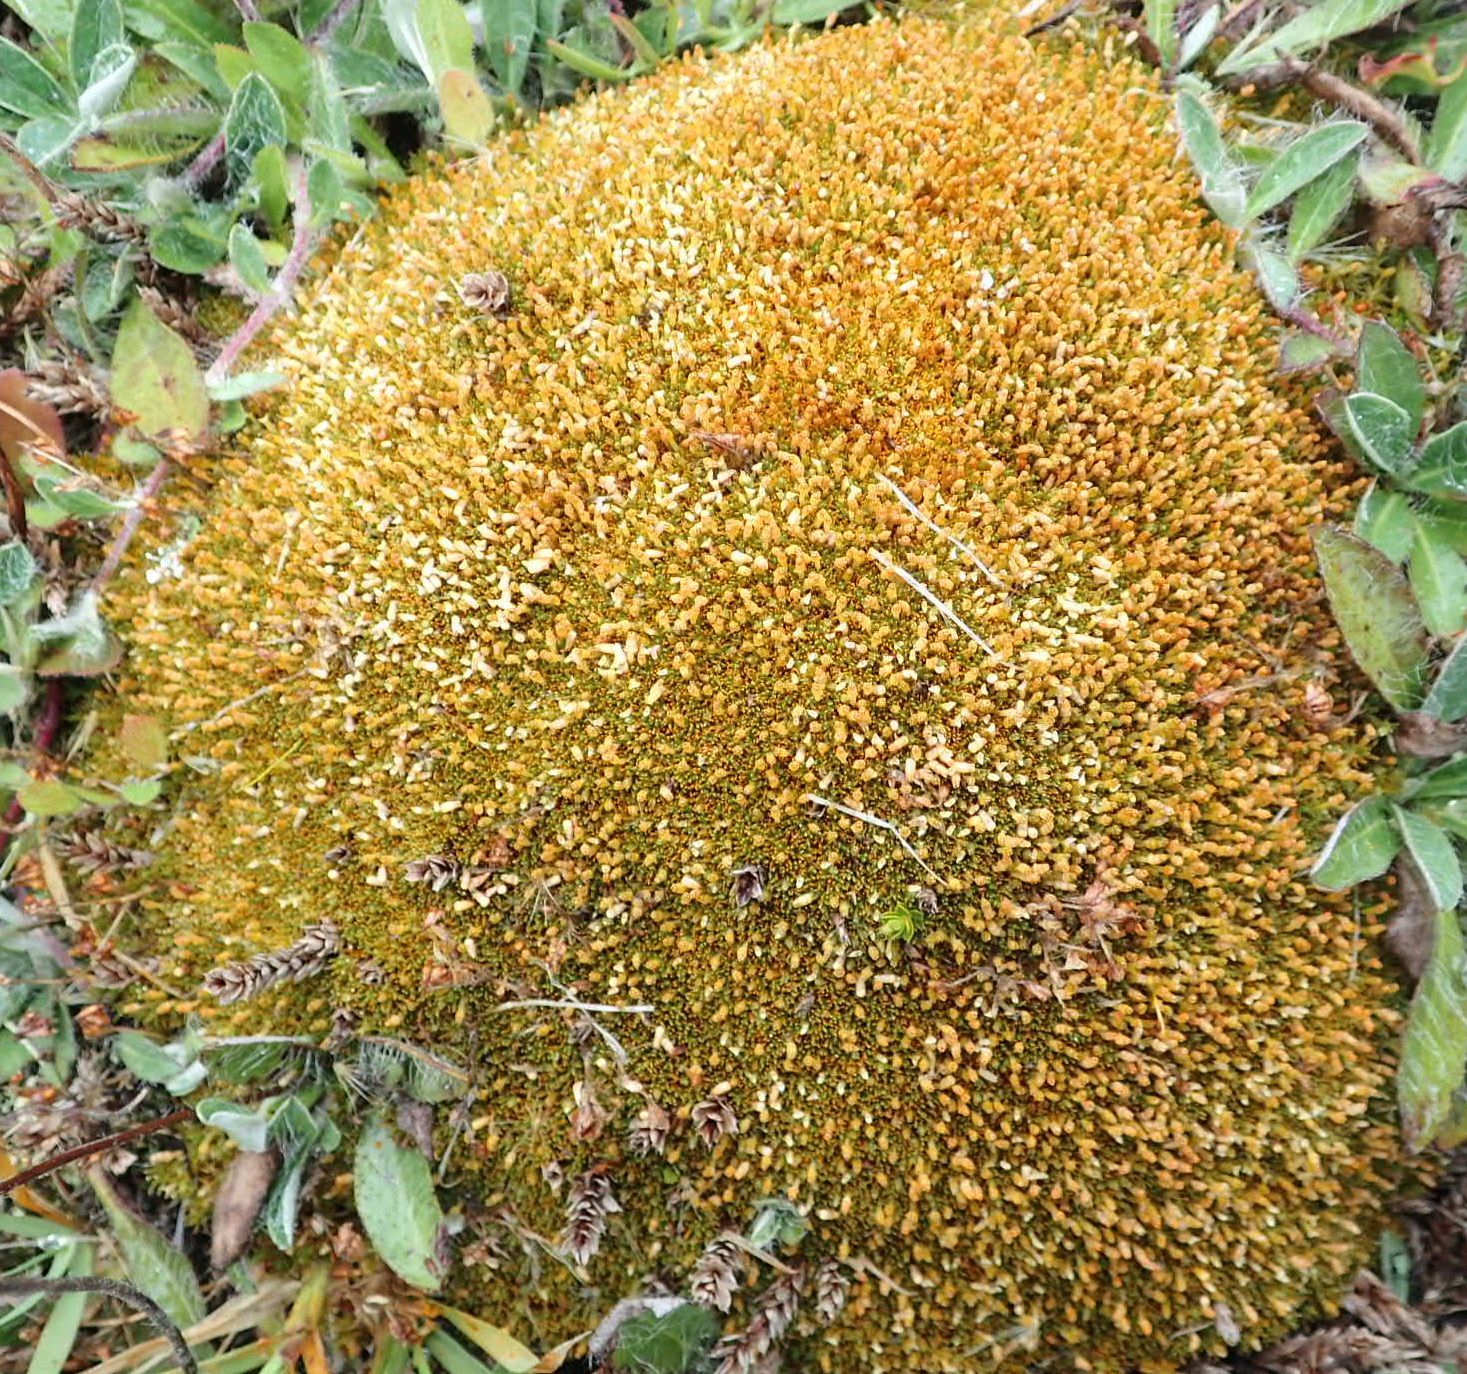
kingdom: Plantae
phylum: Tracheophyta
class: Magnoliopsida
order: Caryophyllales
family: Caryophyllaceae
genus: Scleranthus
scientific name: Scleranthus uniflorus
